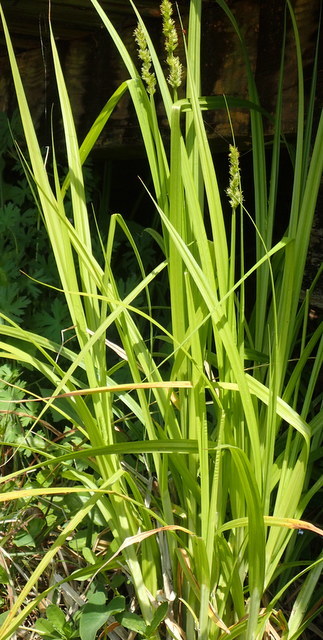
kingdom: Plantae
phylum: Tracheophyta
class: Liliopsida
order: Poales
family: Cyperaceae
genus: Carex
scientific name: Carex stipata
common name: Awl-fruited sedge
